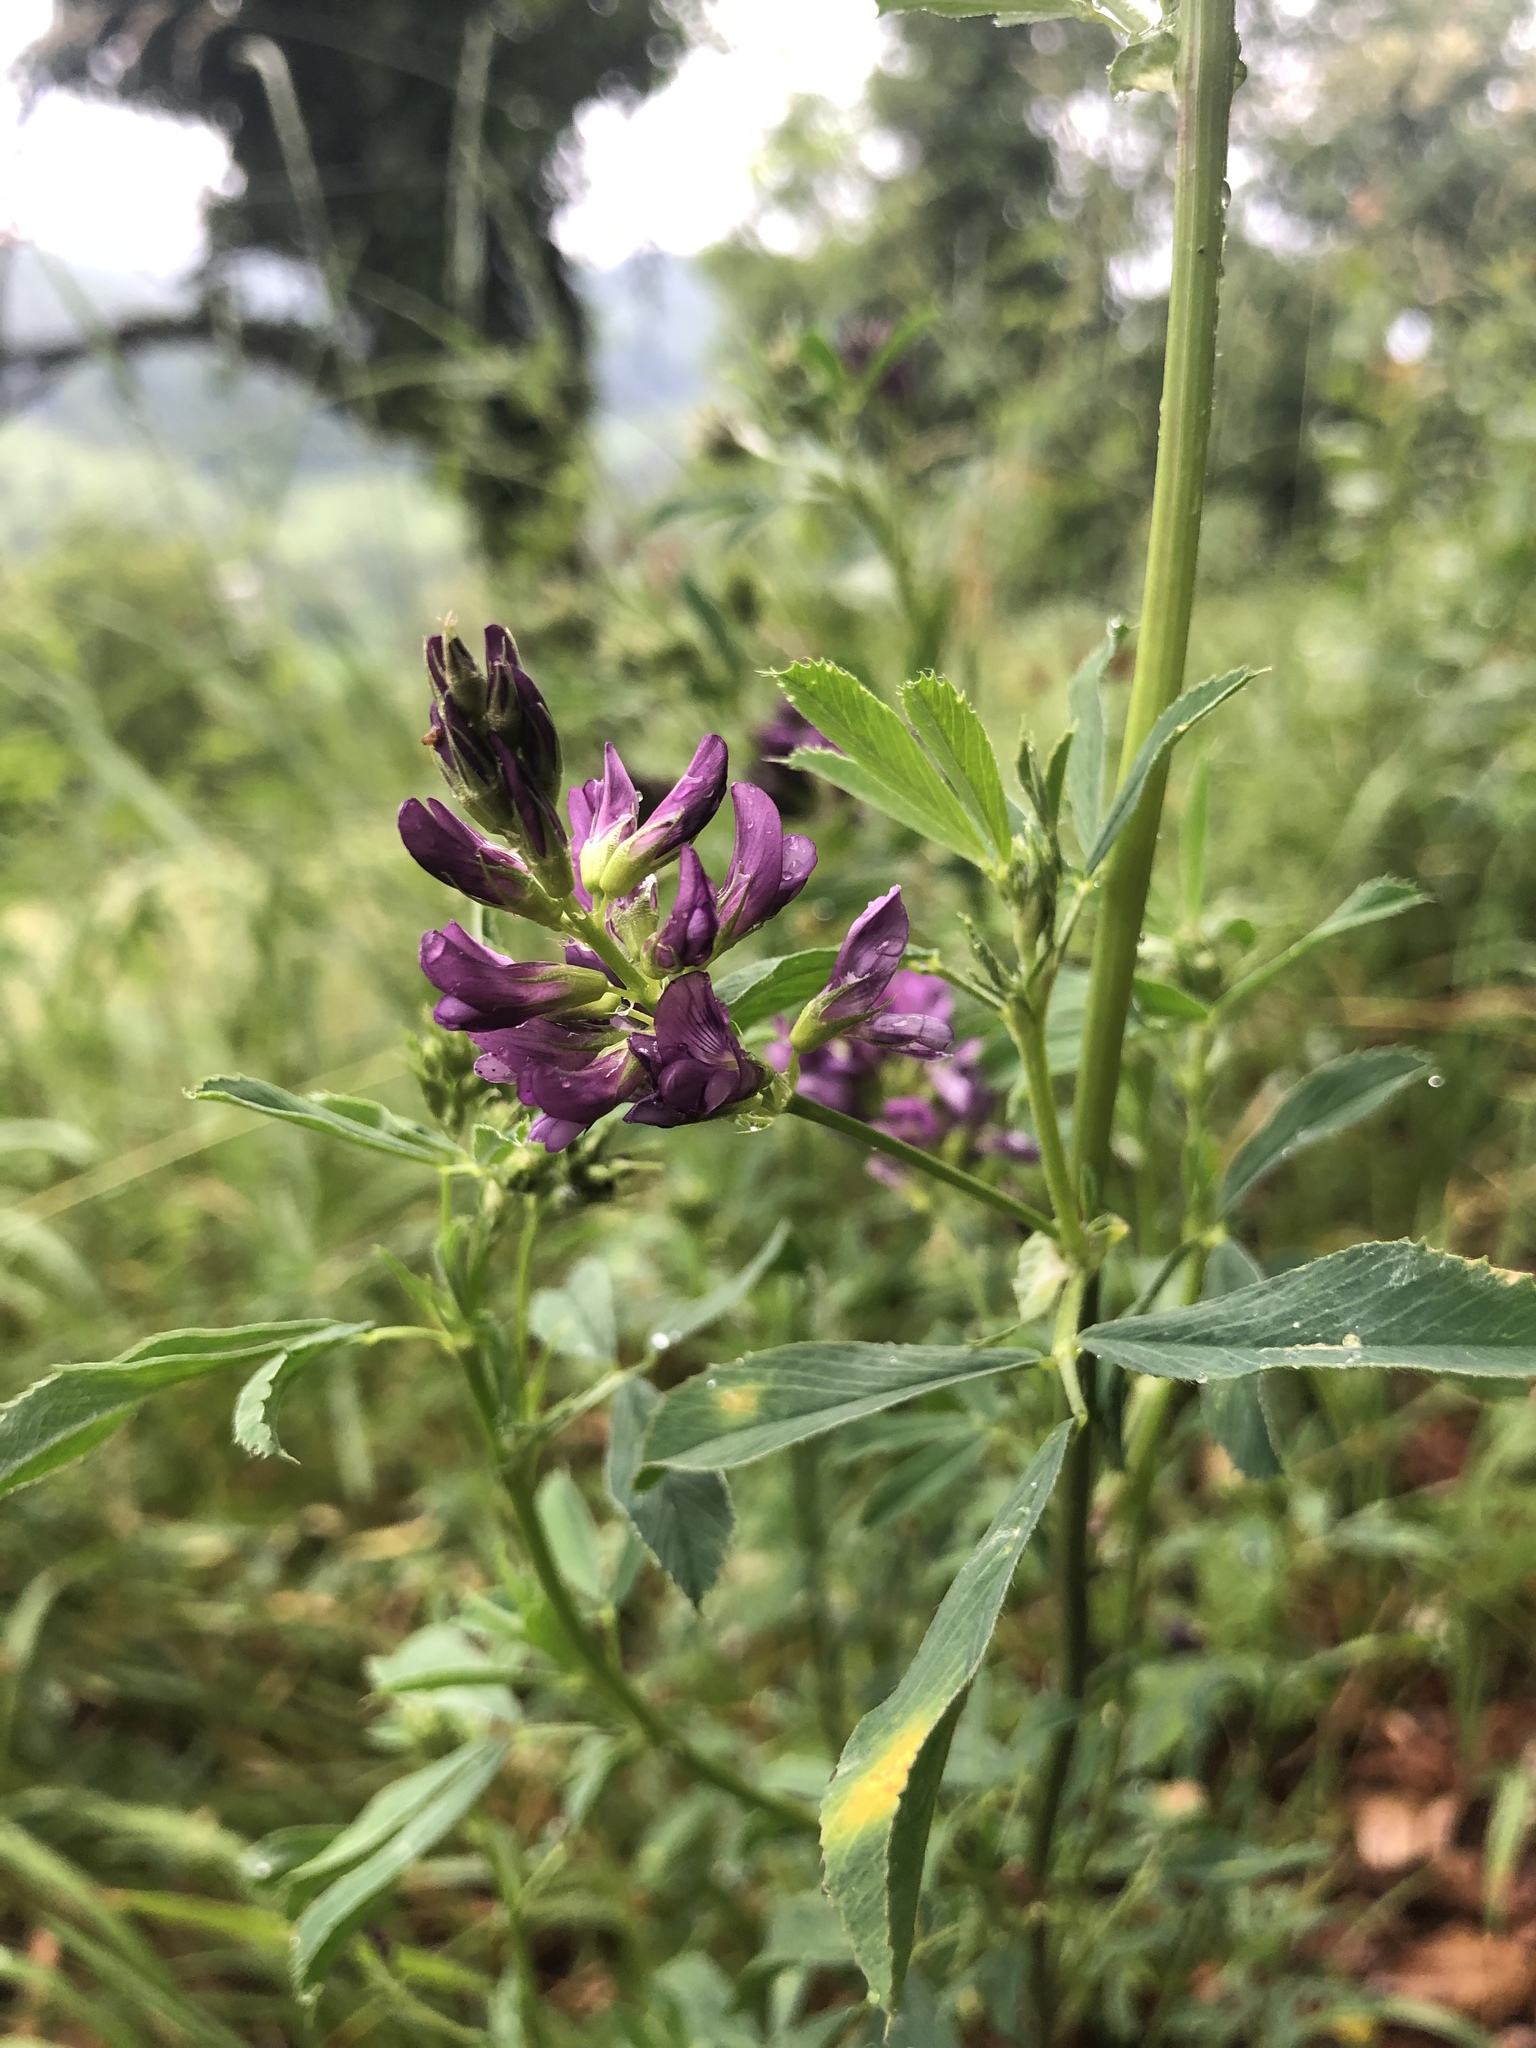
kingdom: Plantae
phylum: Tracheophyta
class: Magnoliopsida
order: Fabales
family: Fabaceae
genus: Medicago
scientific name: Medicago sativa
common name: Alfalfa
